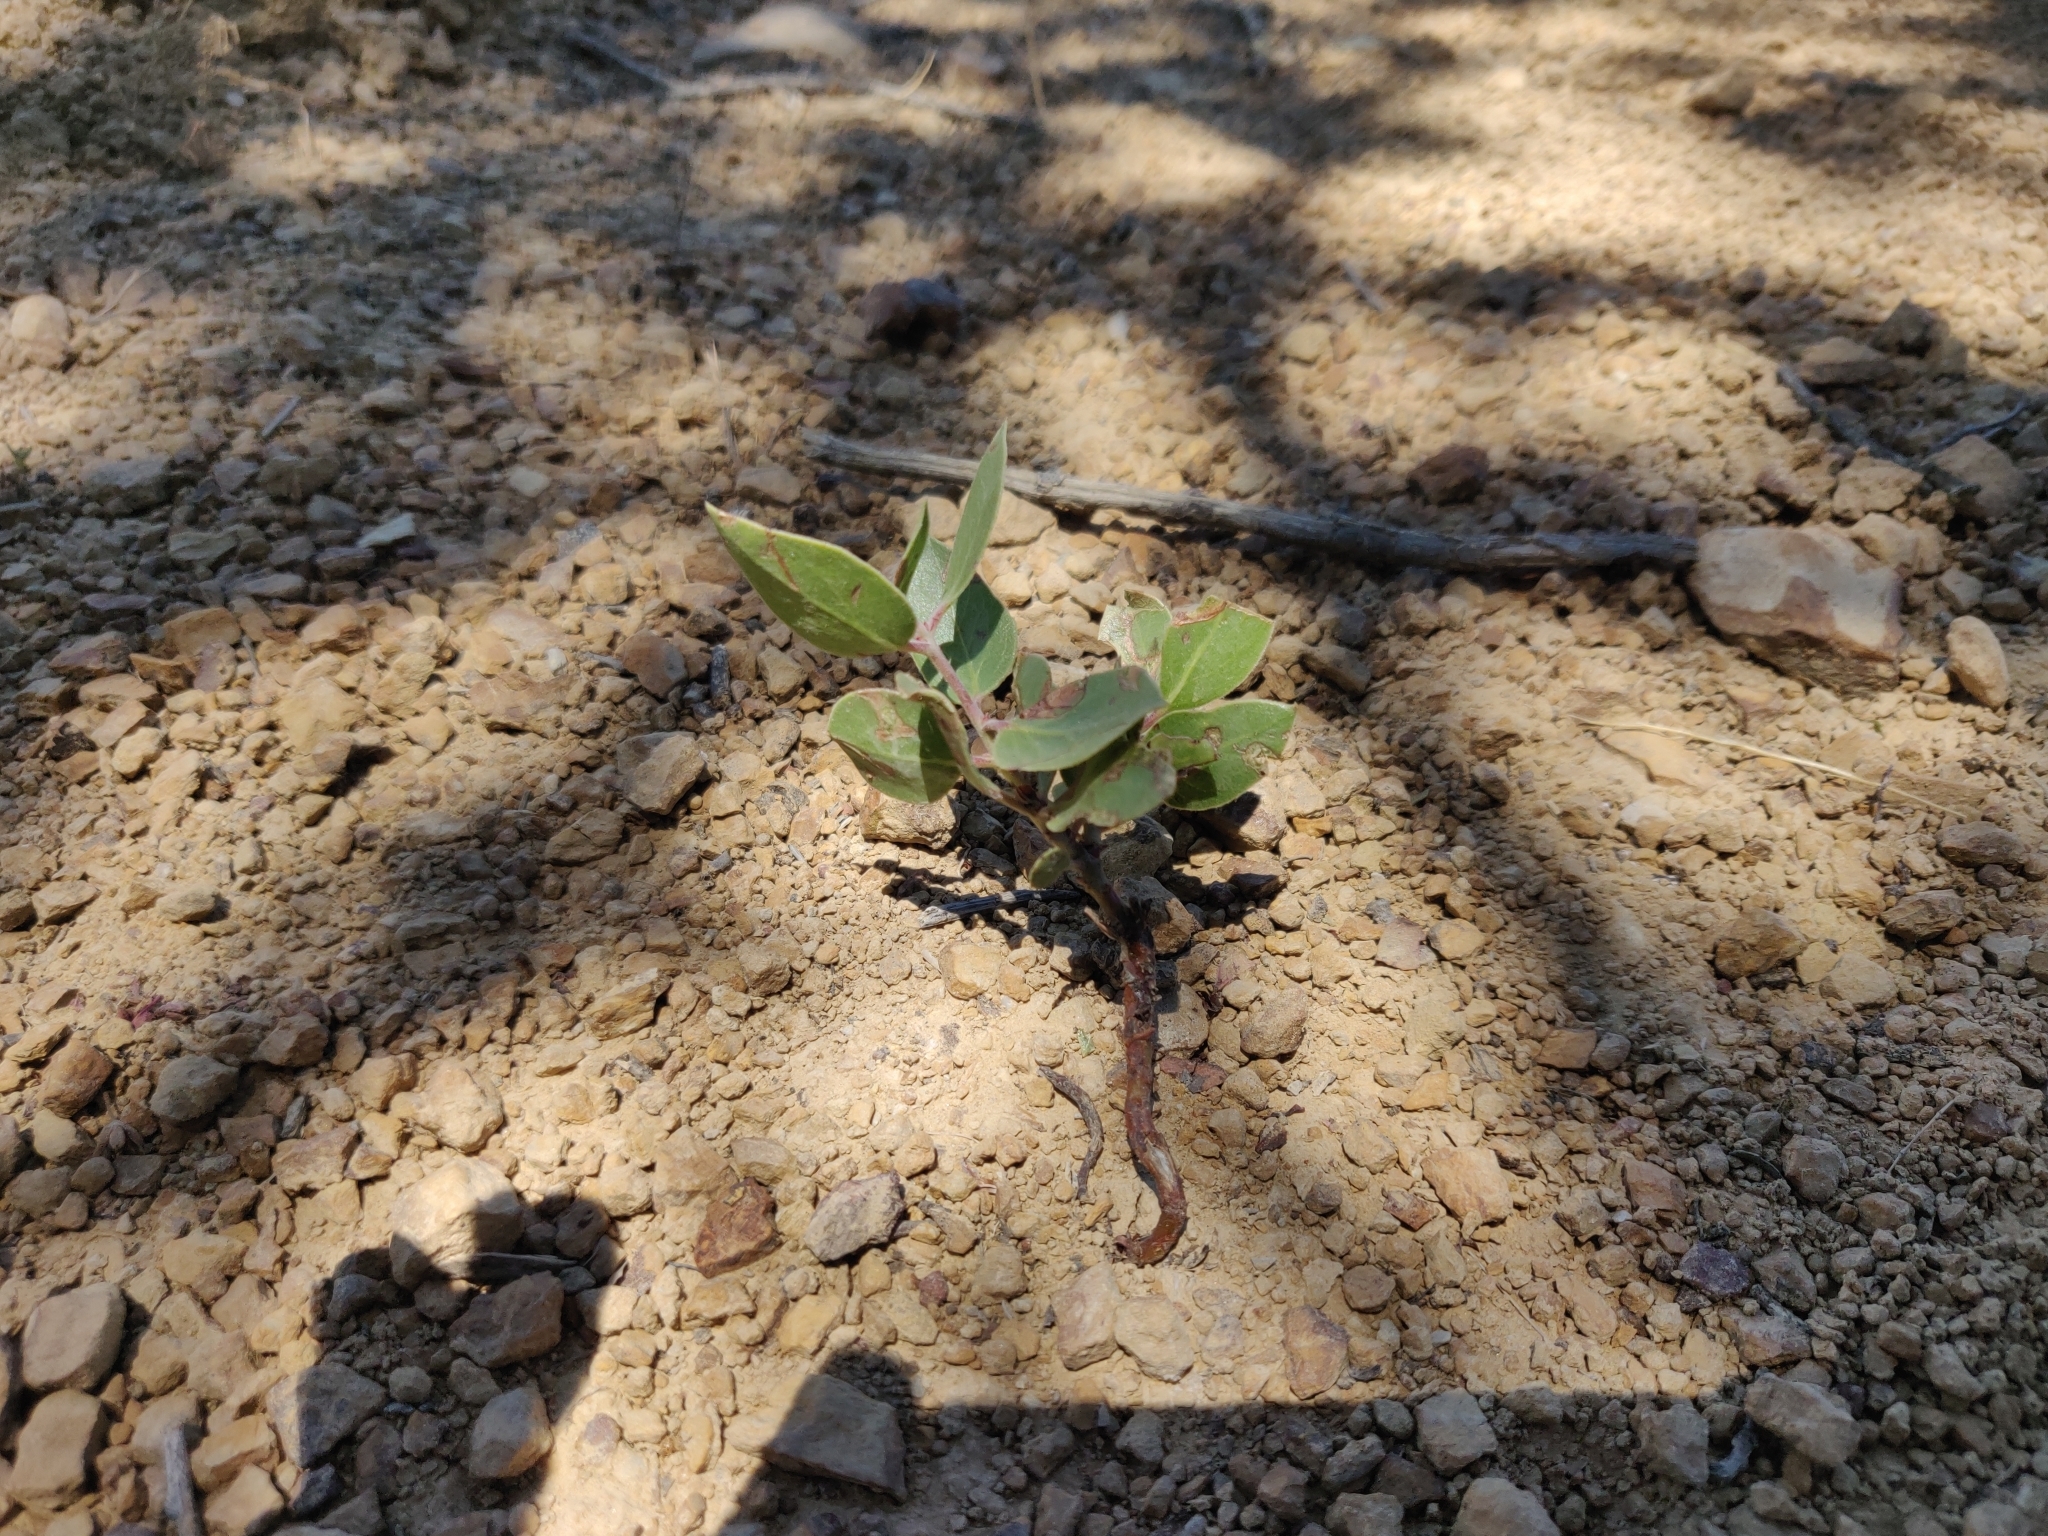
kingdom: Plantae
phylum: Tracheophyta
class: Magnoliopsida
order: Ericales
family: Ericaceae
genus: Arctostaphylos
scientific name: Arctostaphylos manzanita
